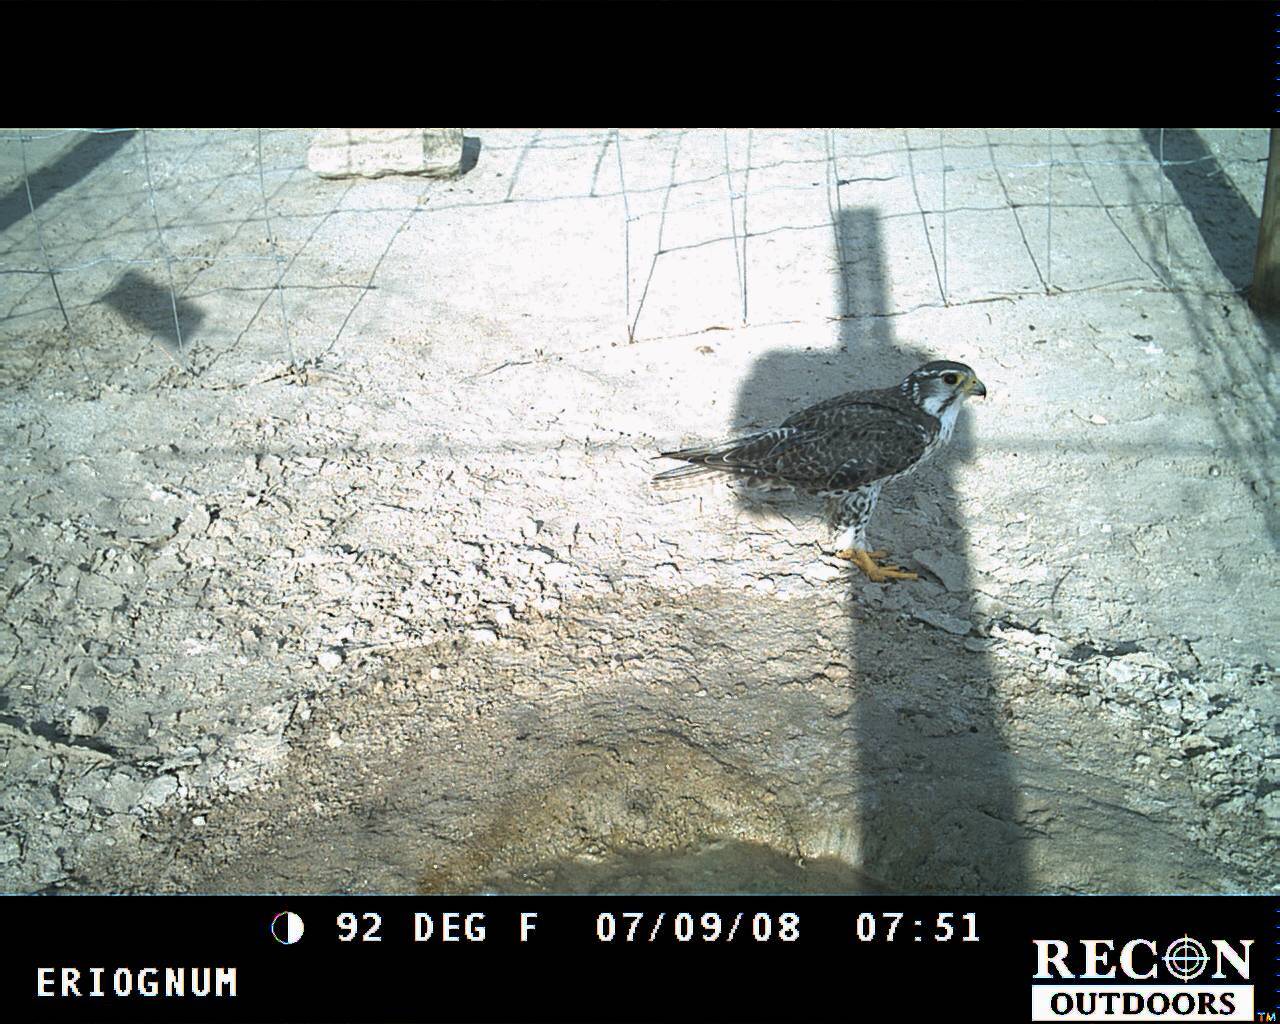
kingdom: Animalia
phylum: Chordata
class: Aves
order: Falconiformes
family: Falconidae
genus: Falco
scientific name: Falco mexicanus
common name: Prairie falcon
